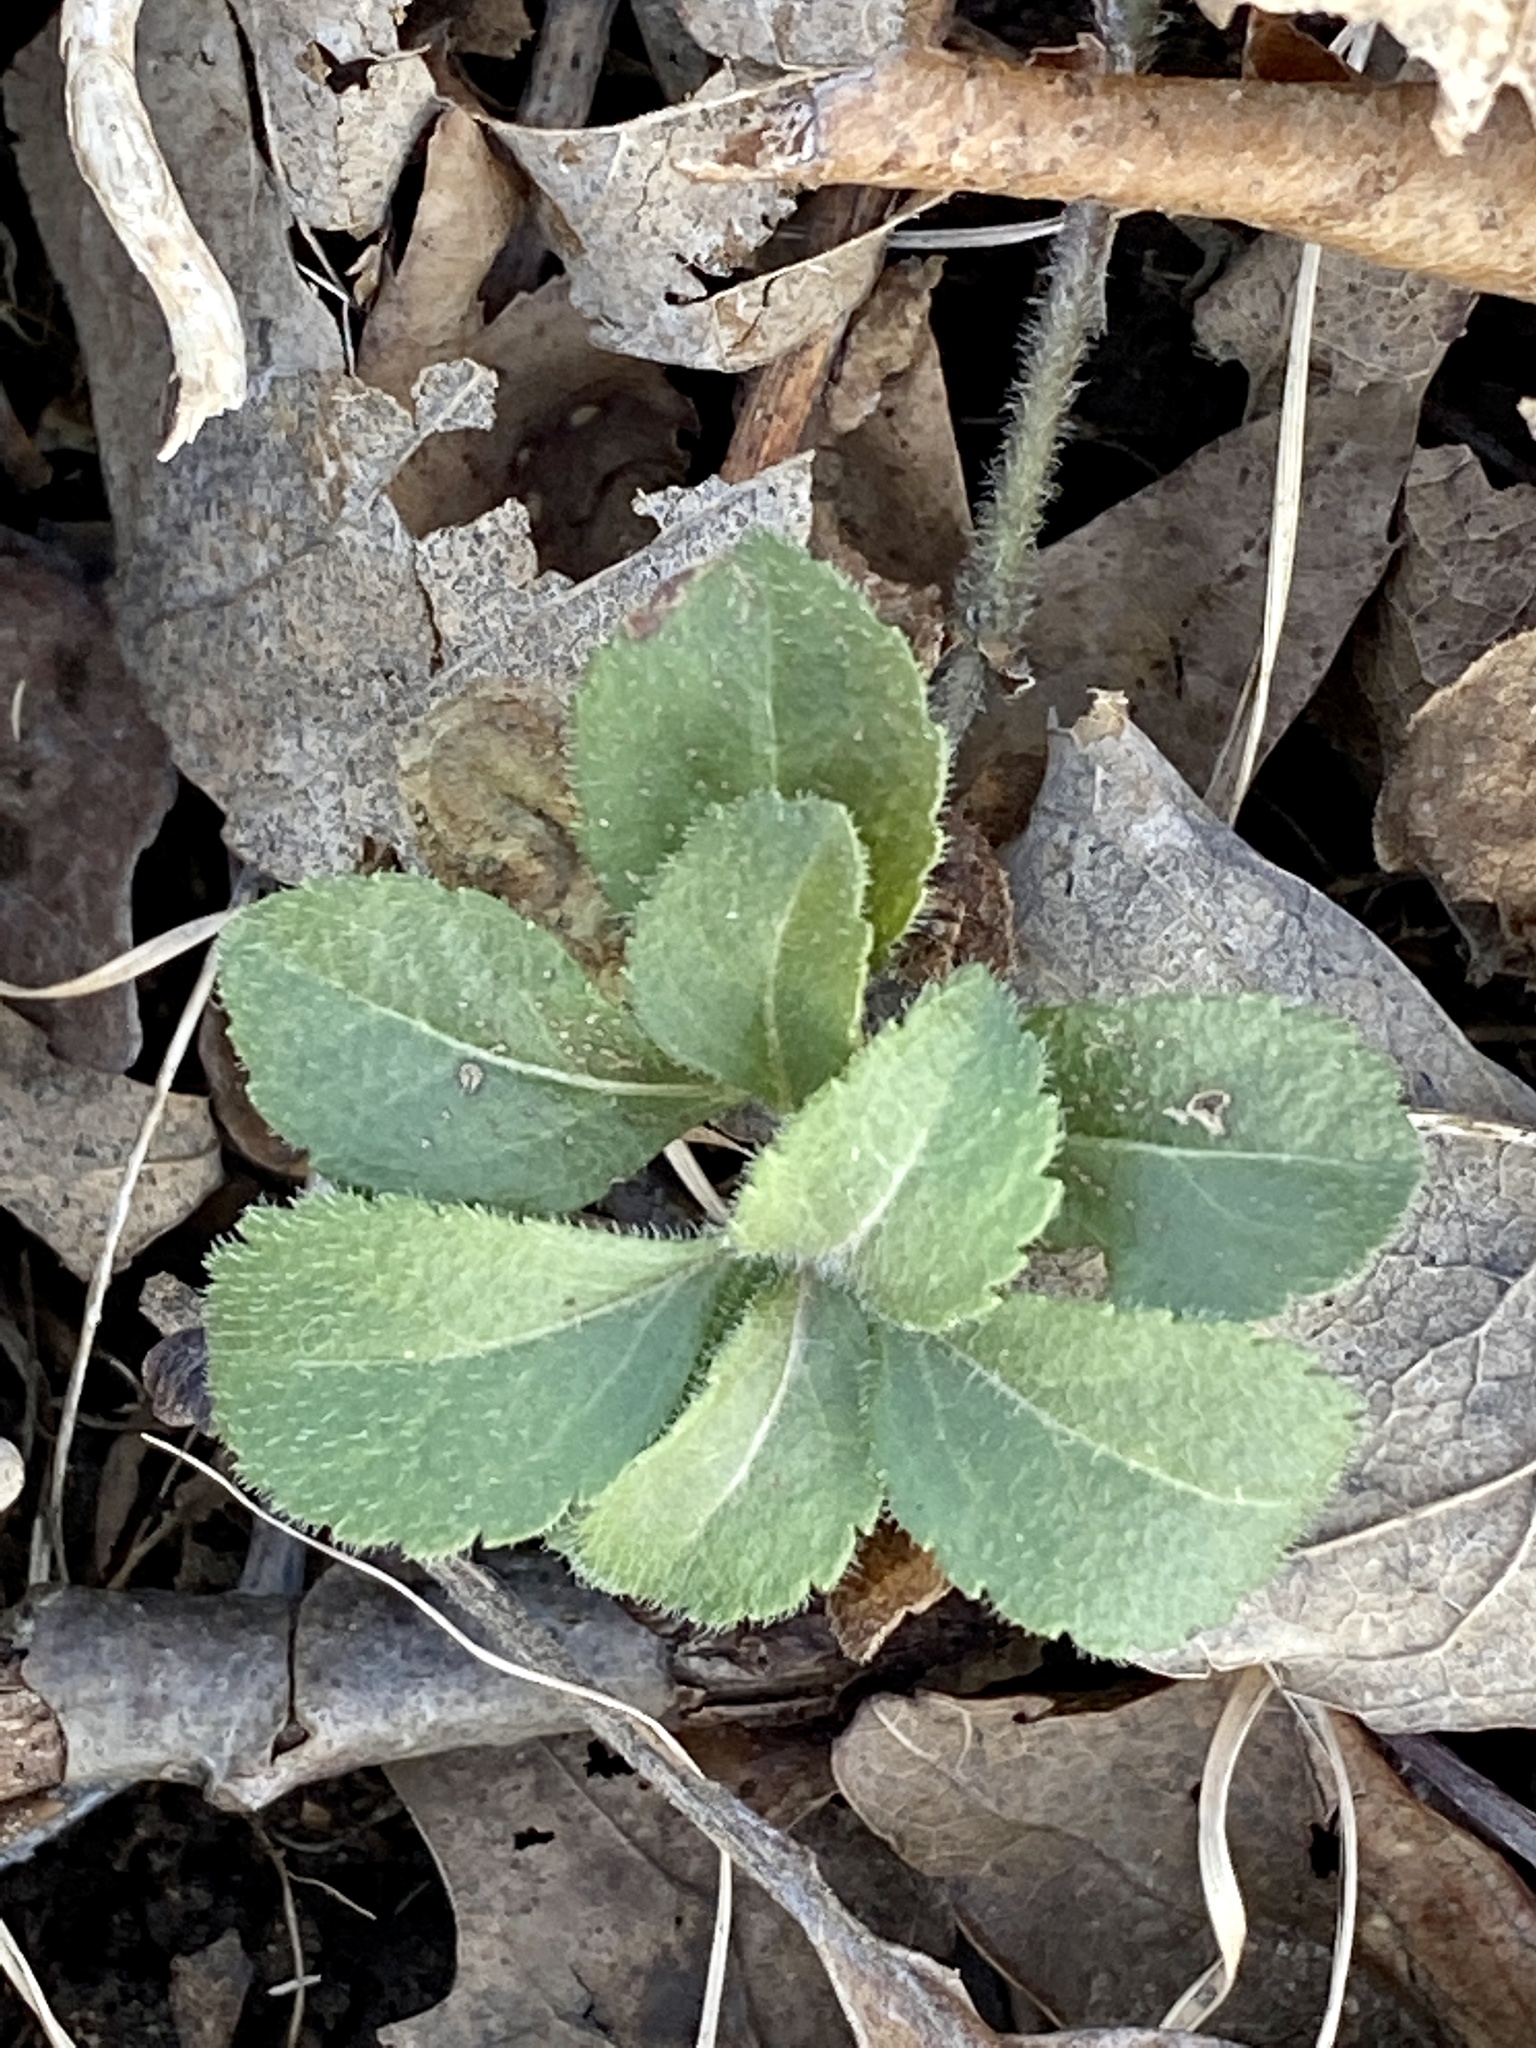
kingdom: Plantae
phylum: Tracheophyta
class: Magnoliopsida
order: Lamiales
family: Plantaginaceae
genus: Veronica
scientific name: Veronica officinalis
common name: Common speedwell
